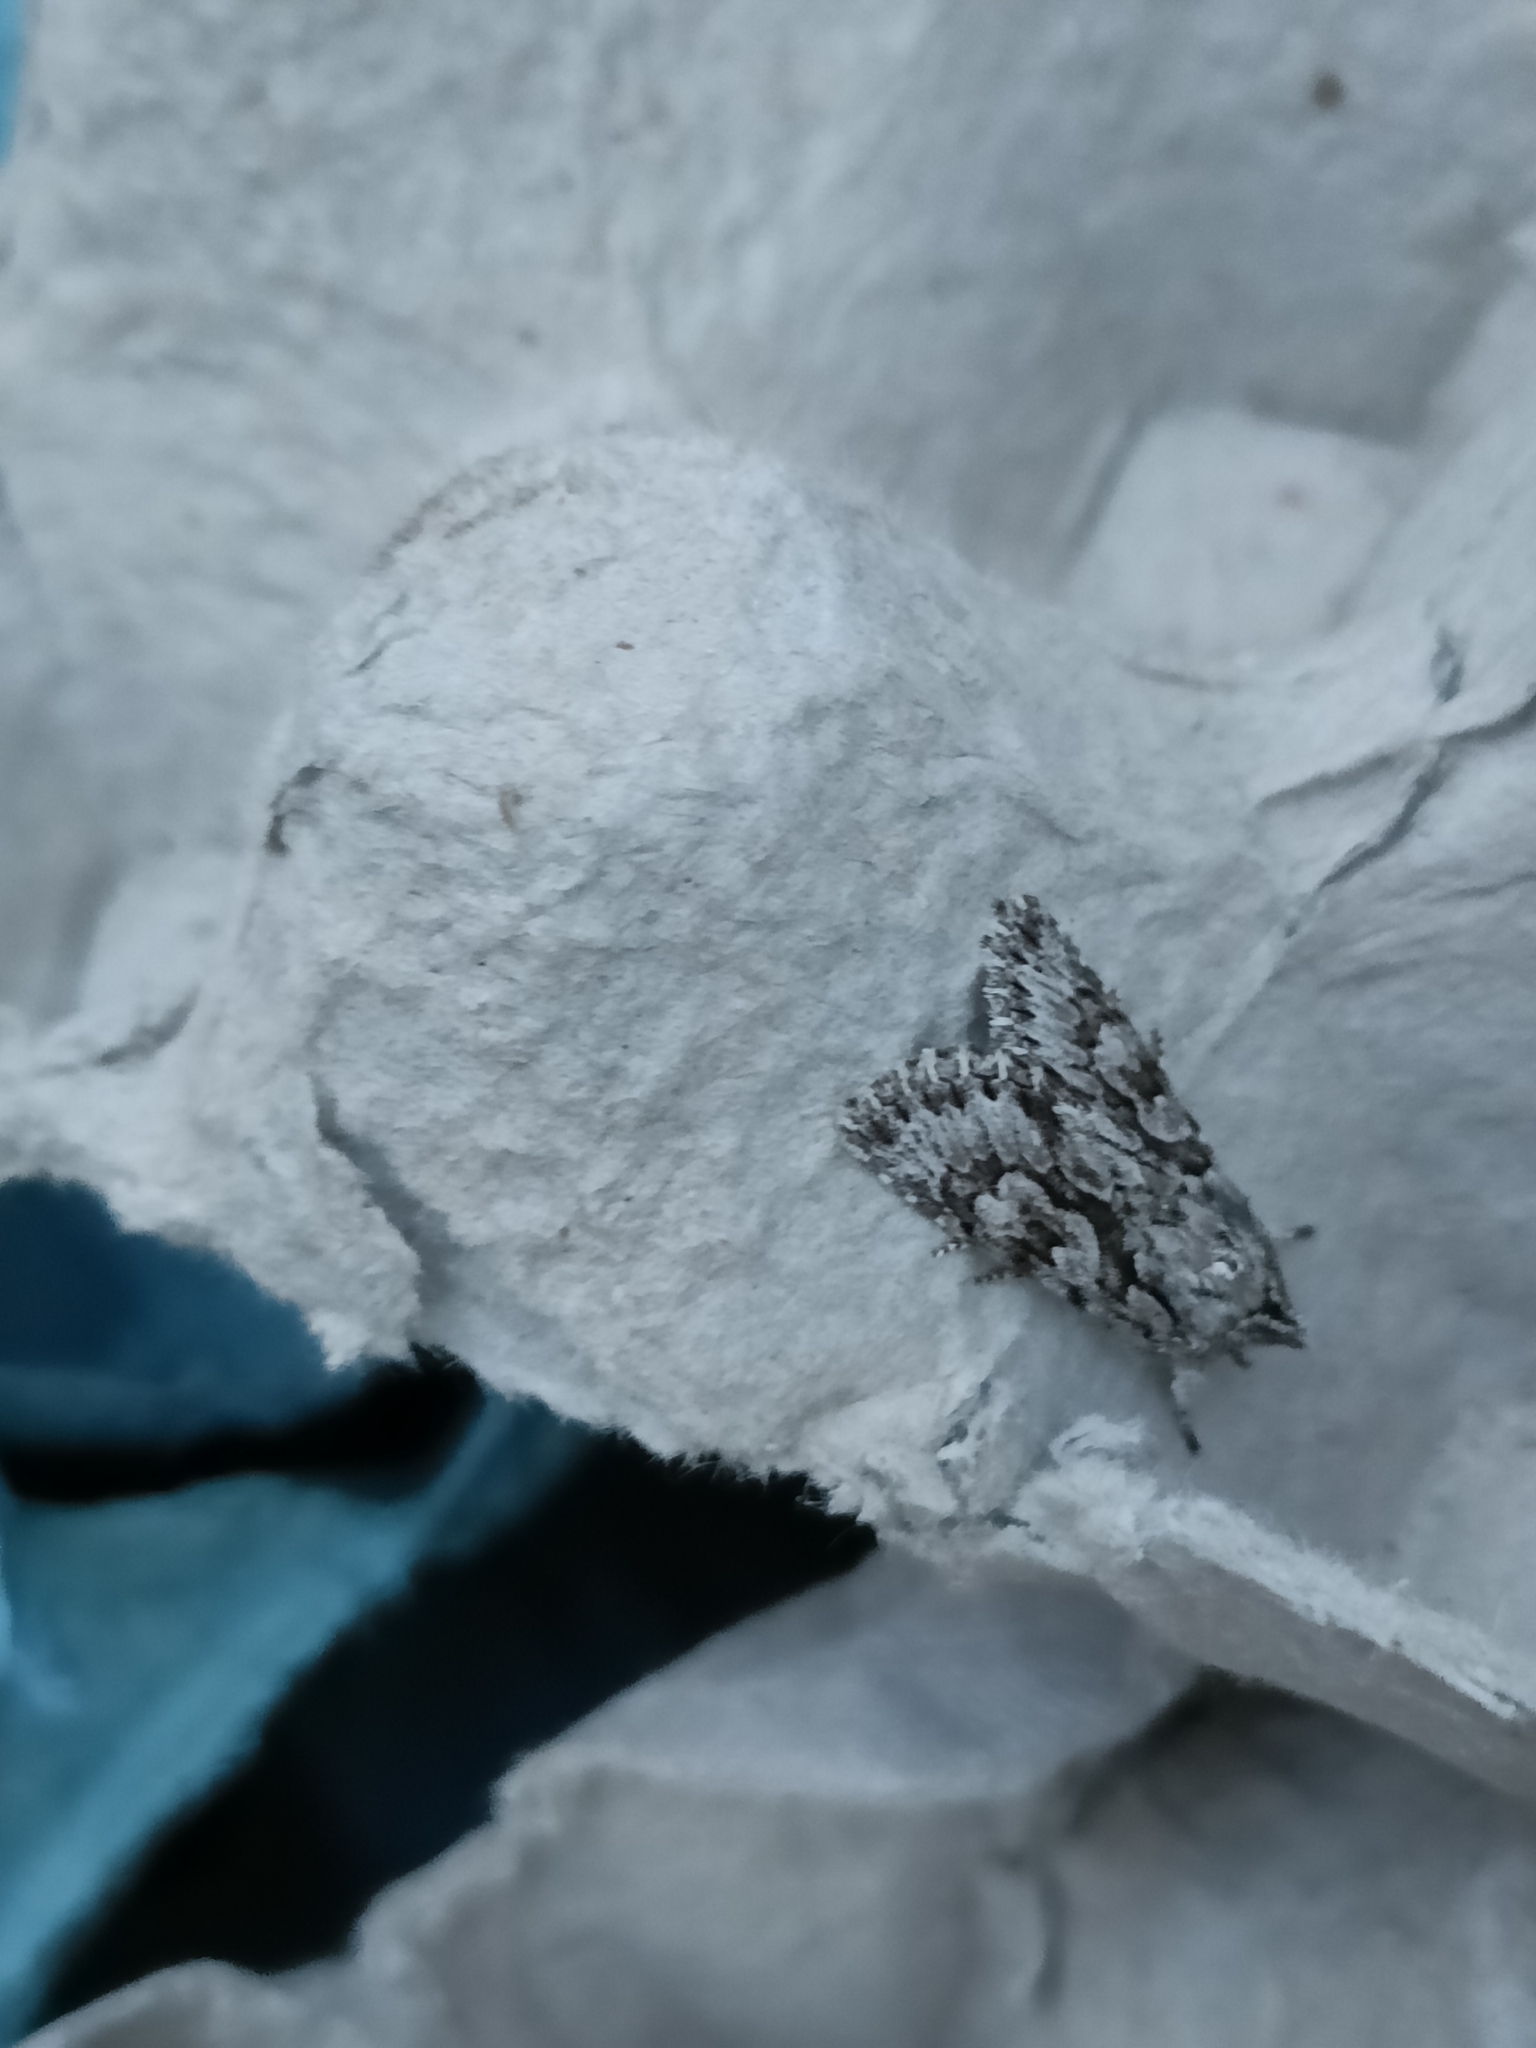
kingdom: Animalia
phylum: Arthropoda
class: Insecta
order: Lepidoptera
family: Noctuidae
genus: Xylocampa
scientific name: Xylocampa areola
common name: Early grey
